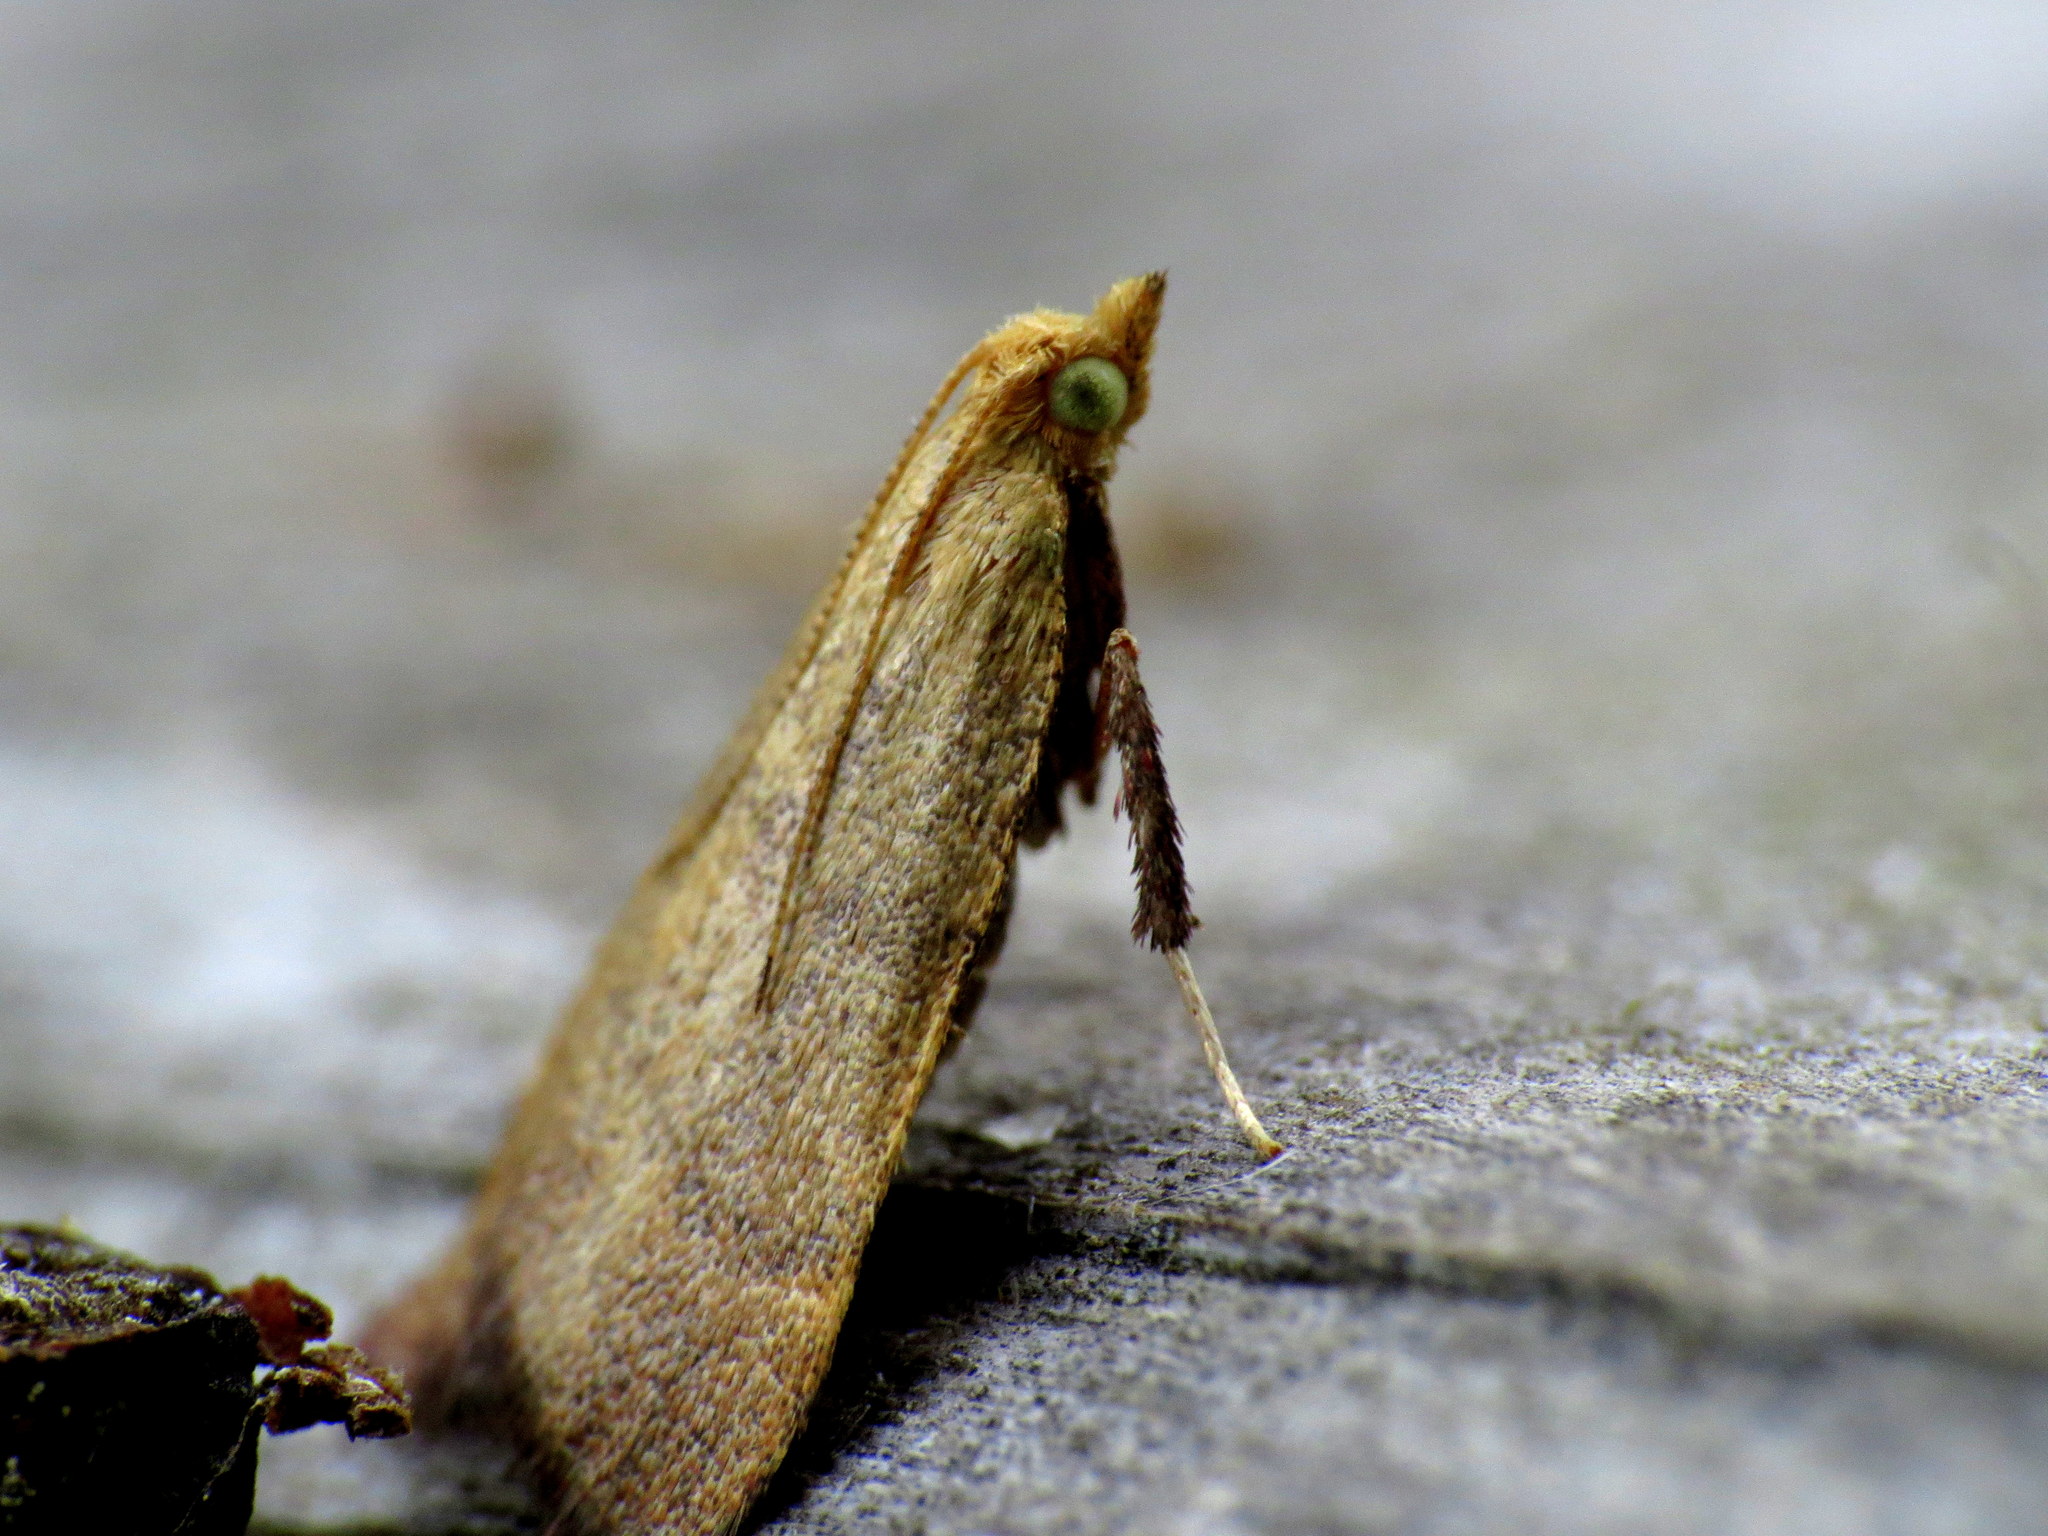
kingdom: Animalia
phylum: Arthropoda
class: Insecta
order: Lepidoptera
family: Pyralidae
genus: Condylolomia
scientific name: Condylolomia participialis
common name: Drab condylolomia moth
